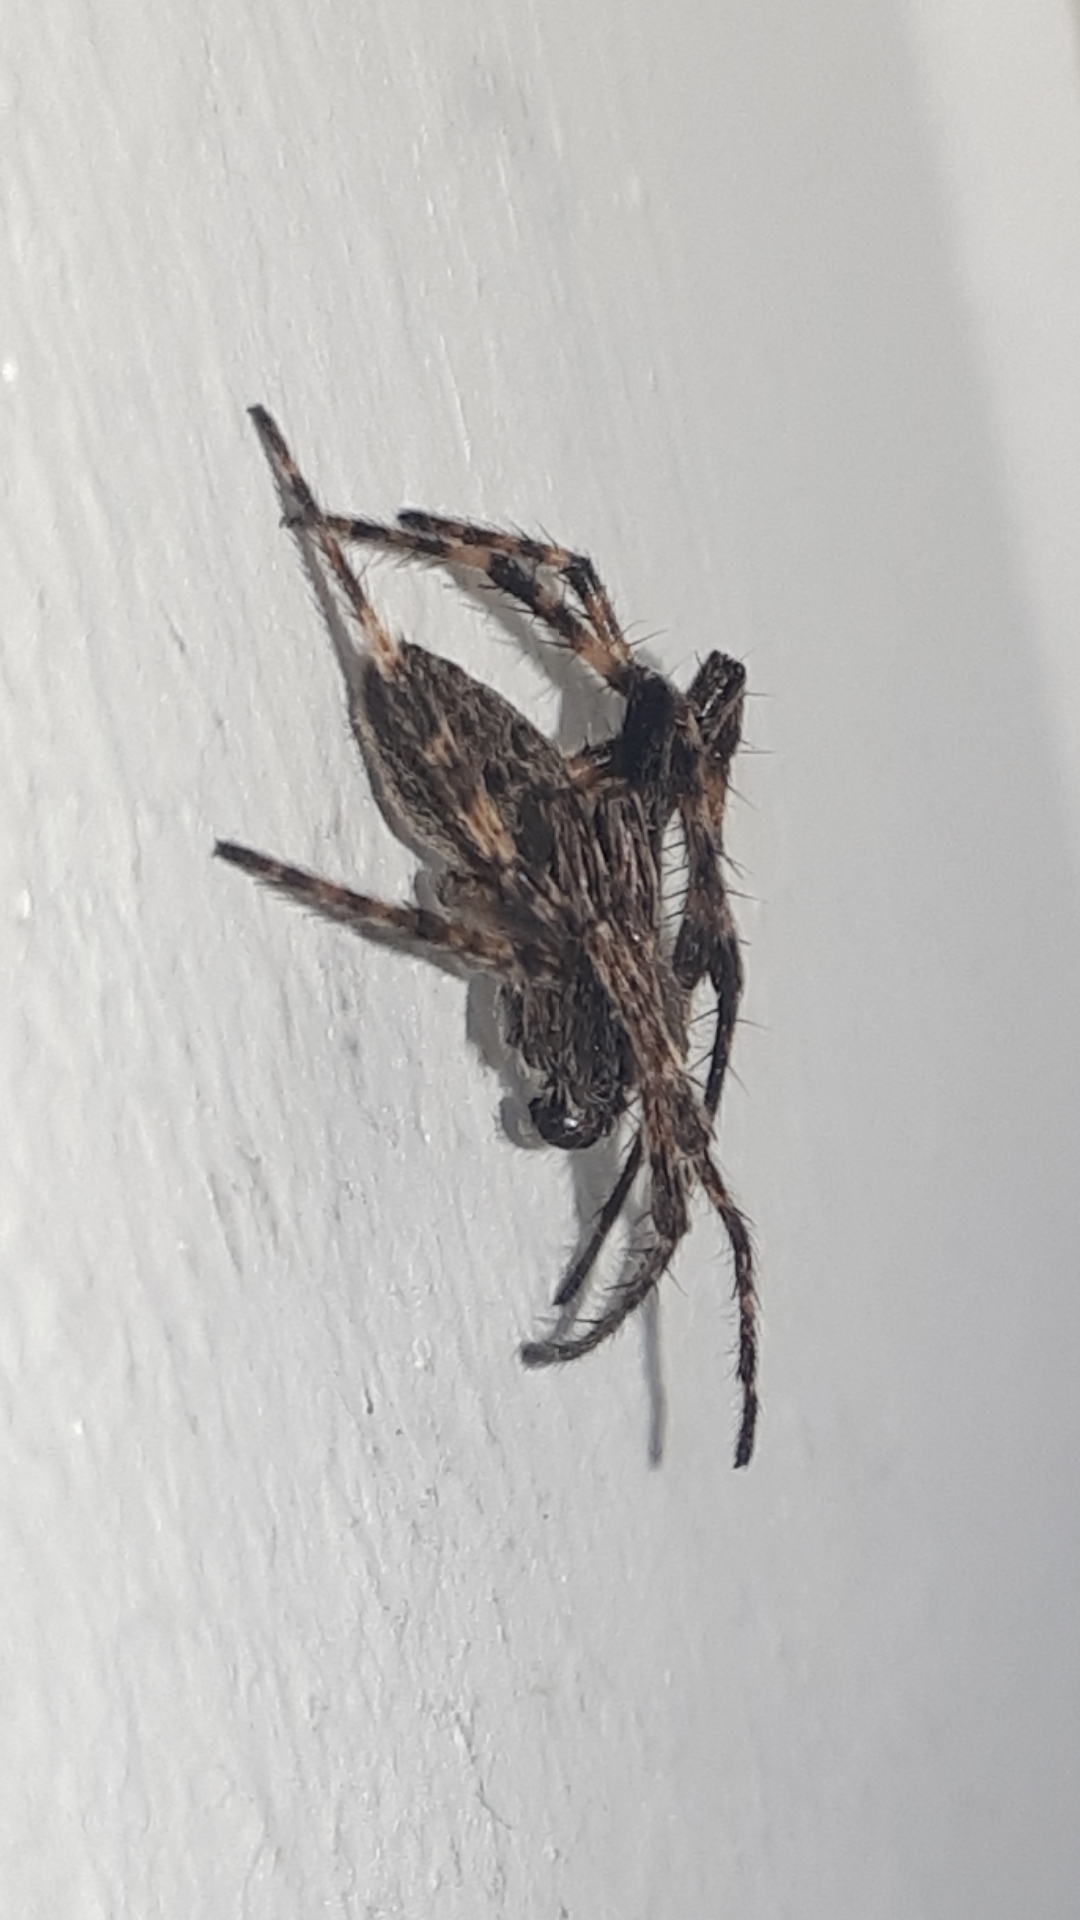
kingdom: Animalia
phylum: Arthropoda
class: Arachnida
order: Araneae
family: Araneidae
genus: Nuctenea
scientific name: Nuctenea umbratica
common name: Toad spider
